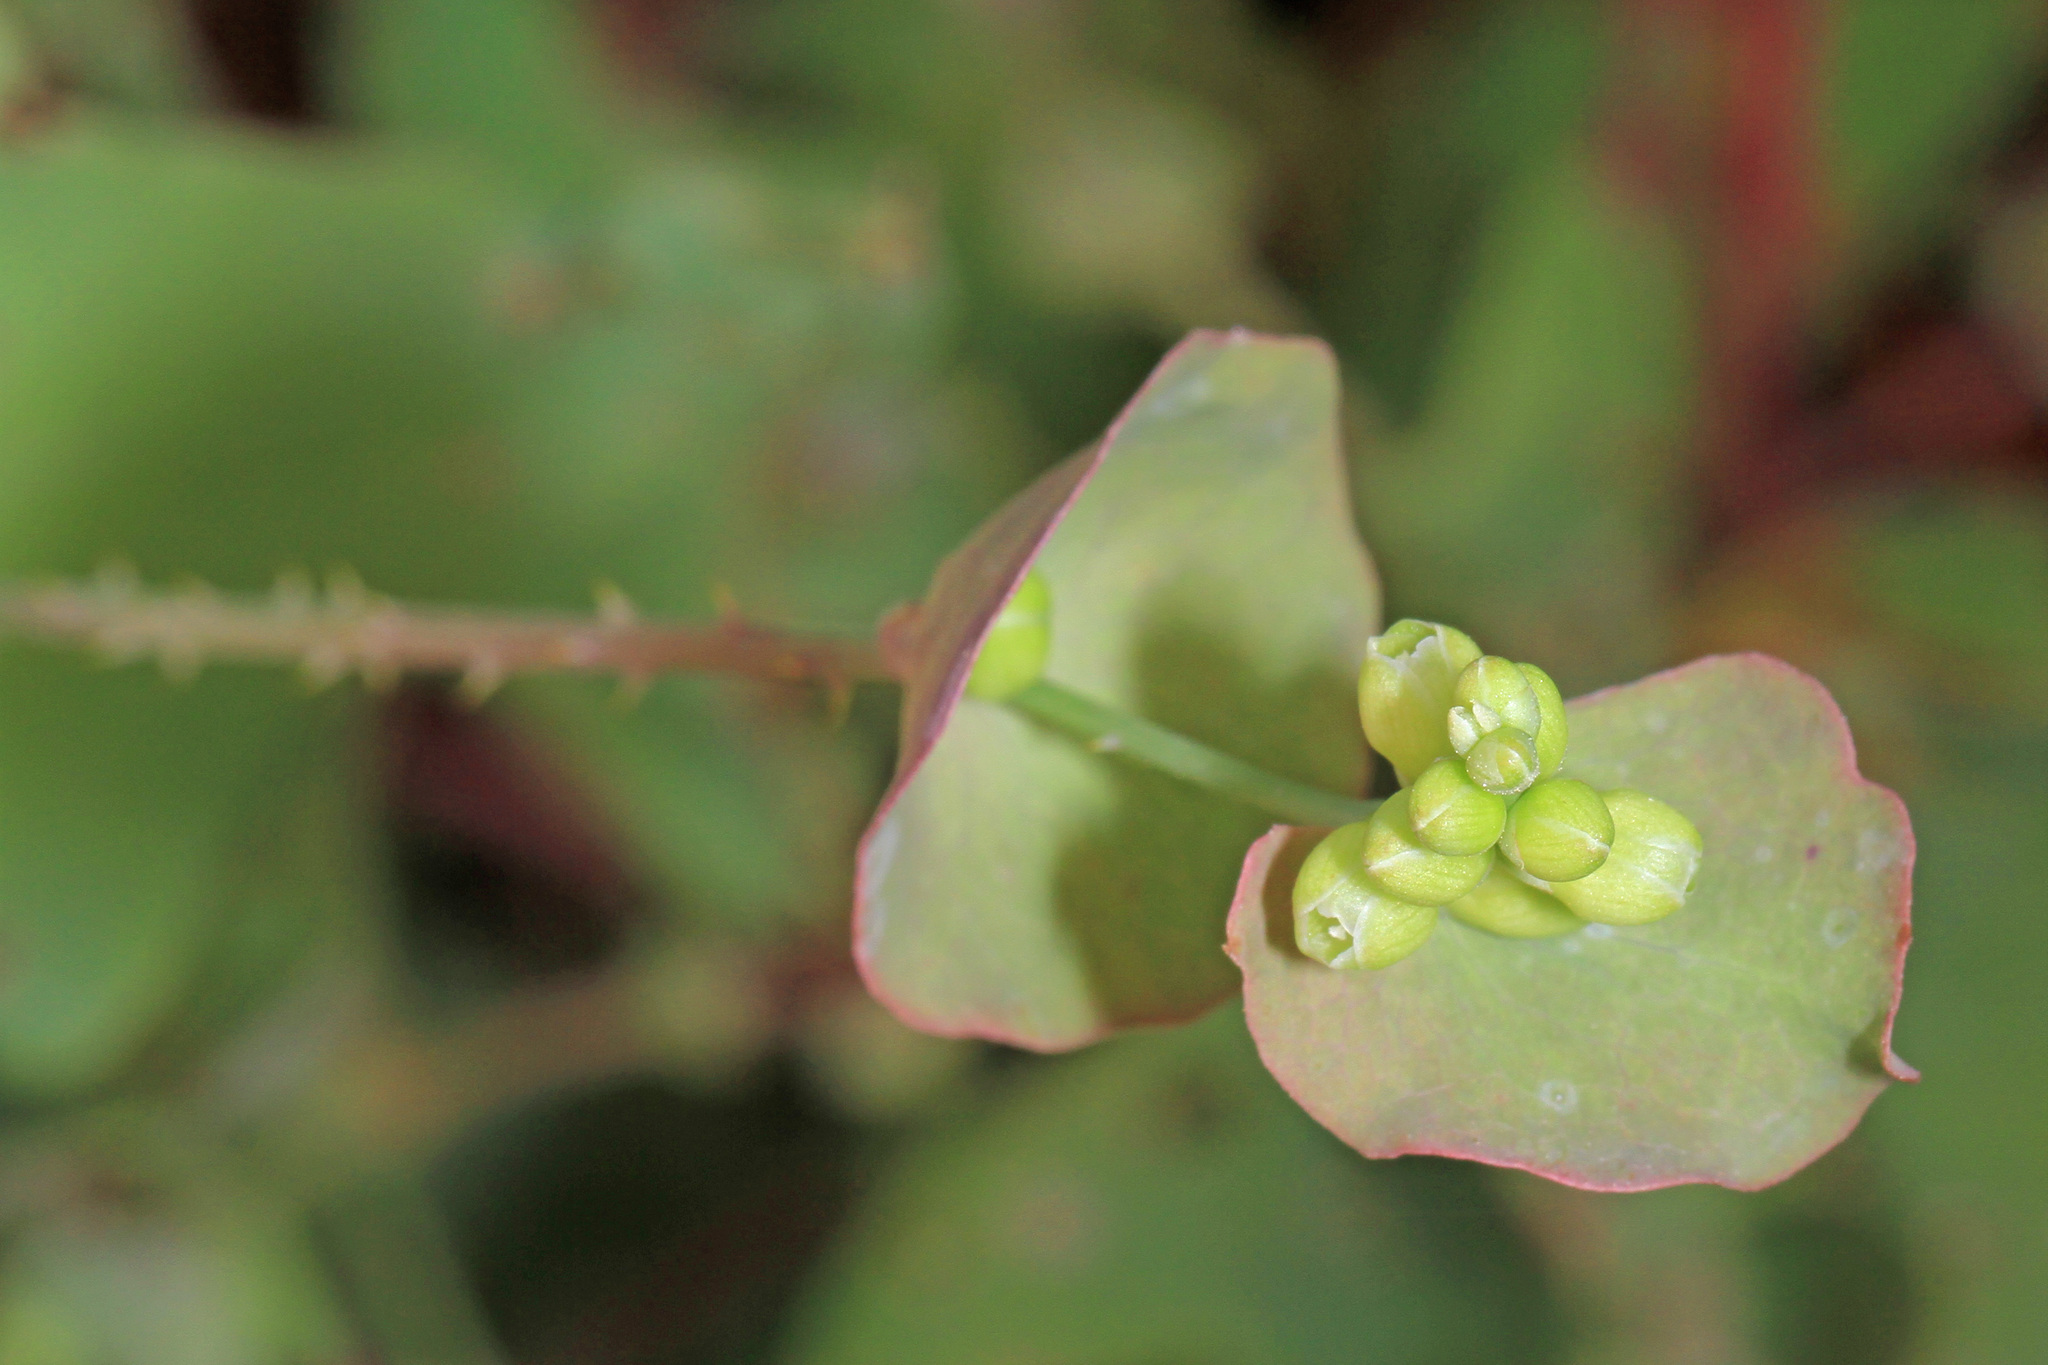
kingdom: Plantae
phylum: Tracheophyta
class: Magnoliopsida
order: Caryophyllales
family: Polygonaceae
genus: Persicaria
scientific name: Persicaria perfoliata
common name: Asiatic tearthumb
